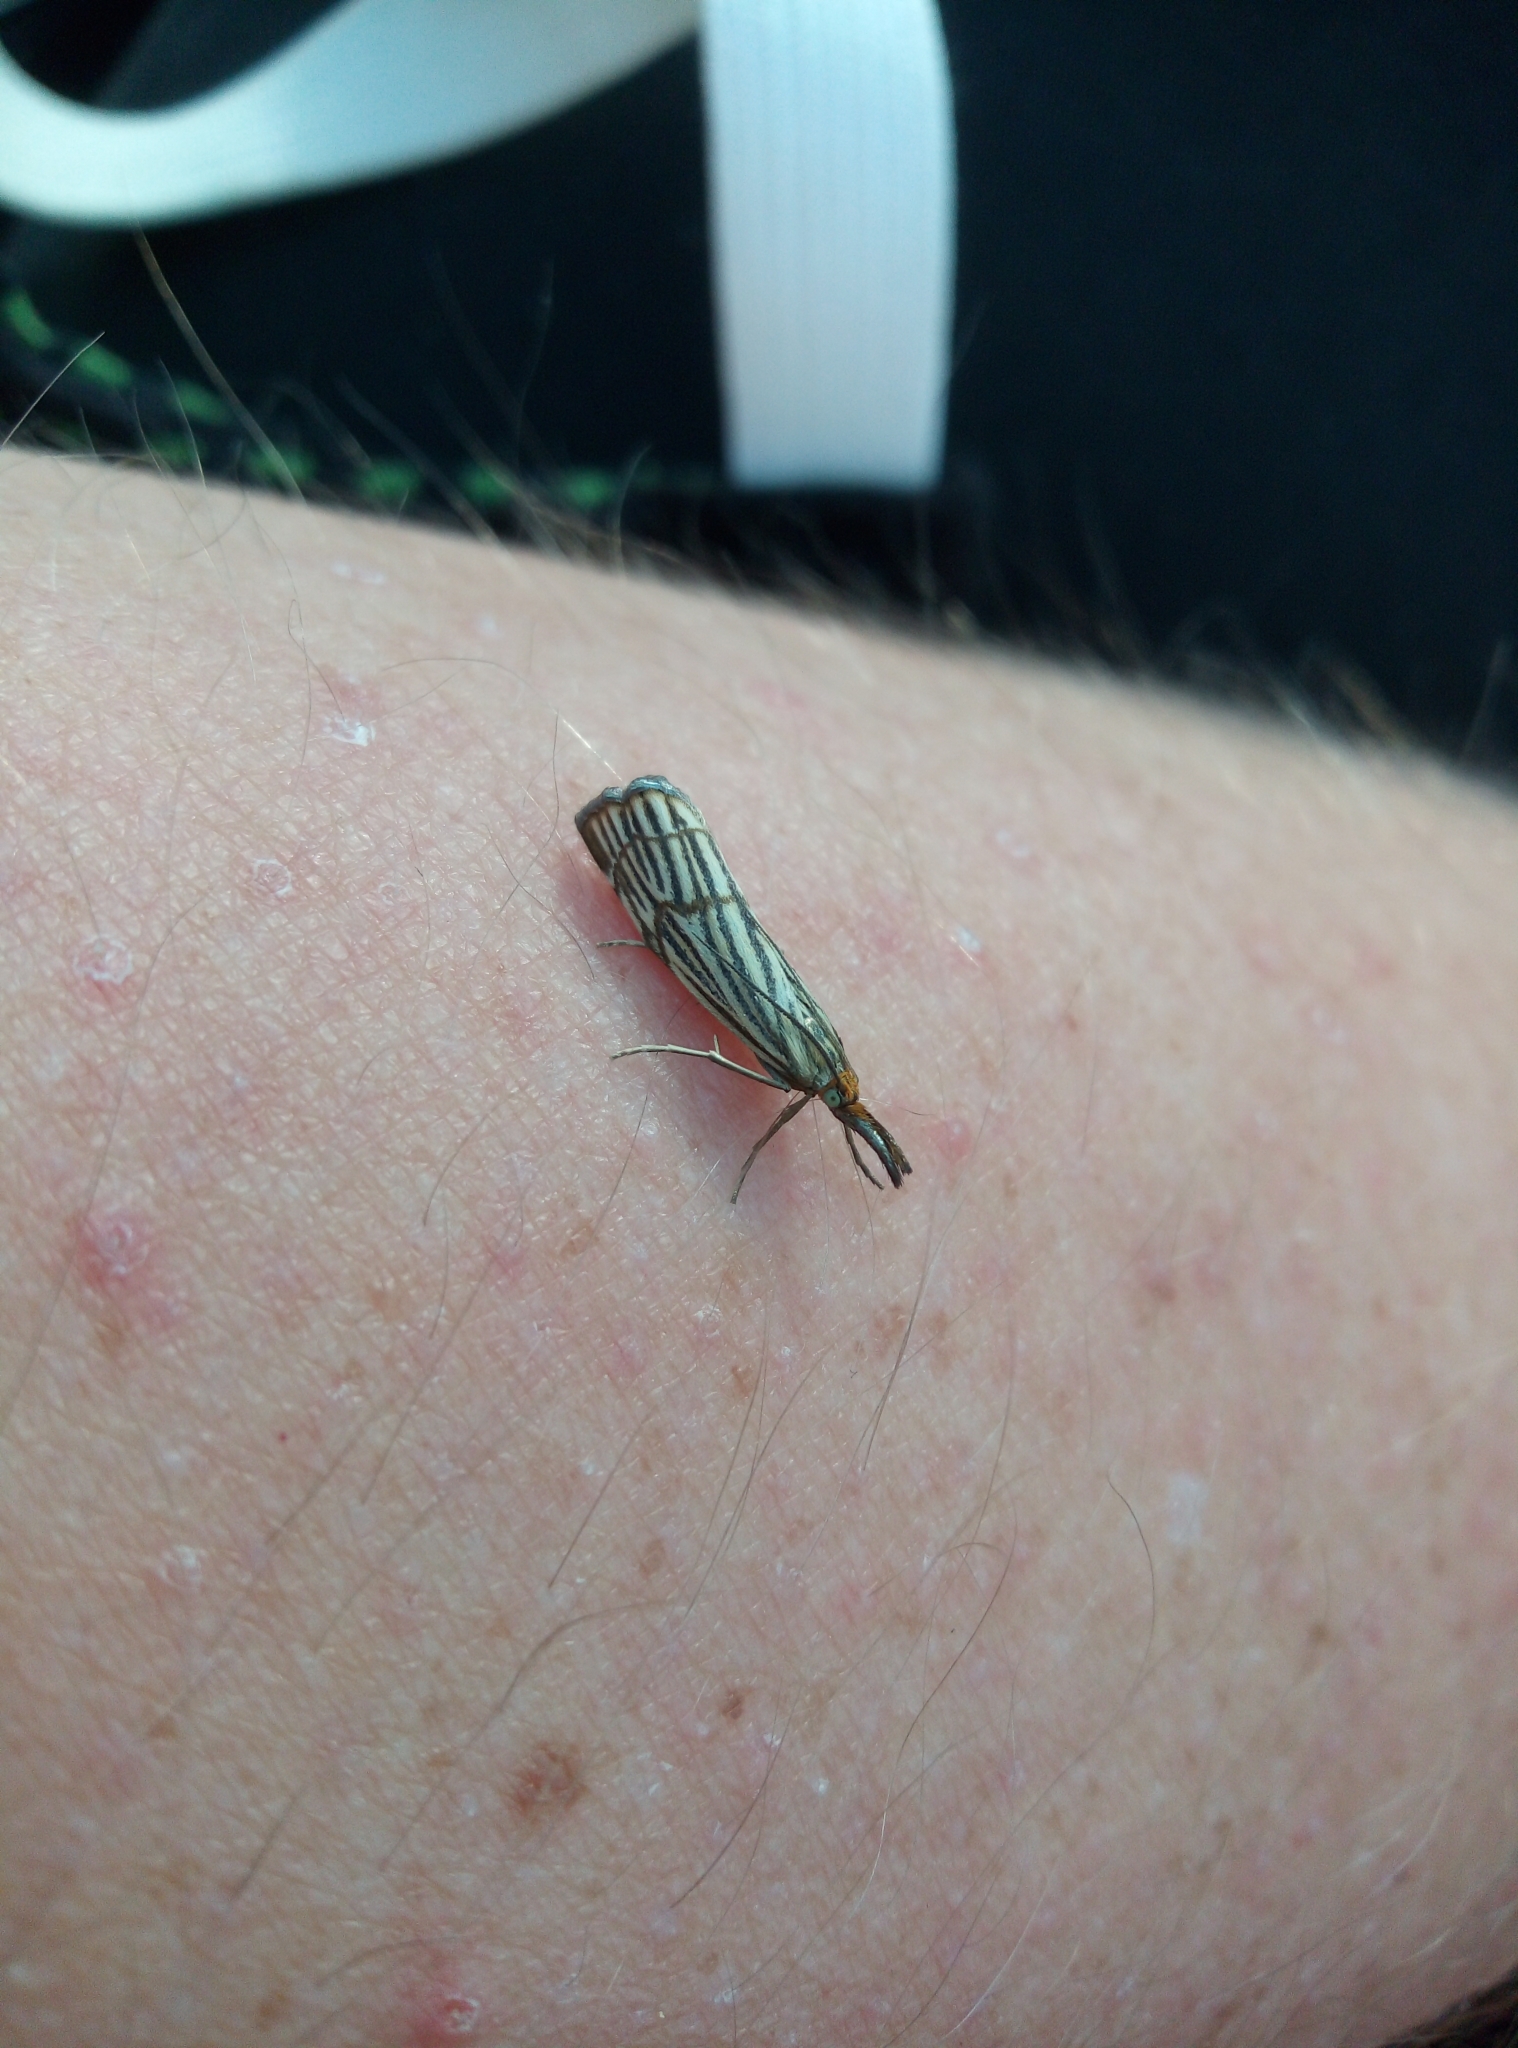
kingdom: Animalia
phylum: Arthropoda
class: Insecta
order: Lepidoptera
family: Crambidae
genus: Chrysocrambus
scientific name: Chrysocrambus Chrysocramboides craterellus
